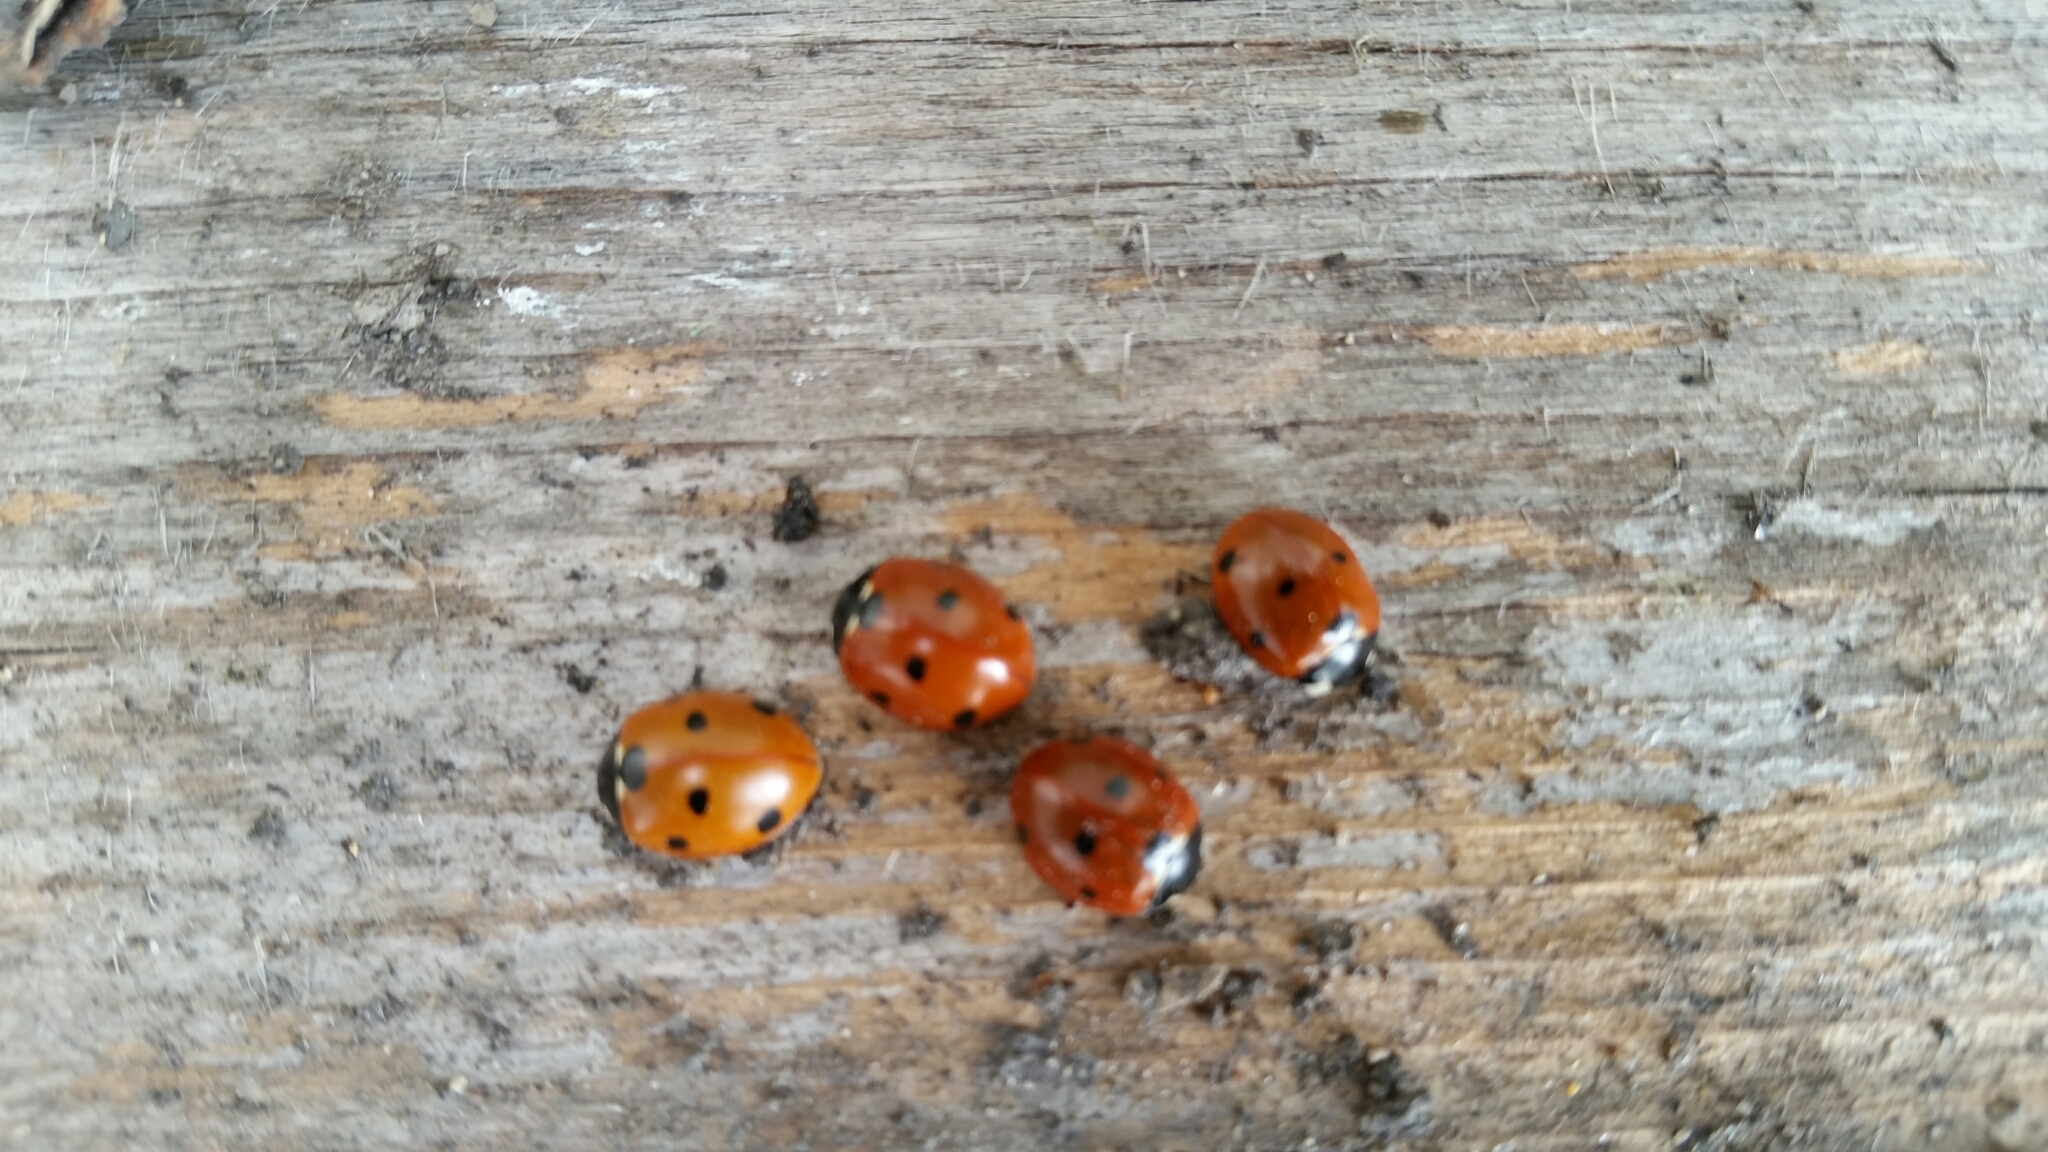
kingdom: Animalia
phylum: Arthropoda
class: Insecta
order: Coleoptera
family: Coccinellidae
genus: Coccinella
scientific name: Coccinella septempunctata
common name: Sevenspotted lady beetle
